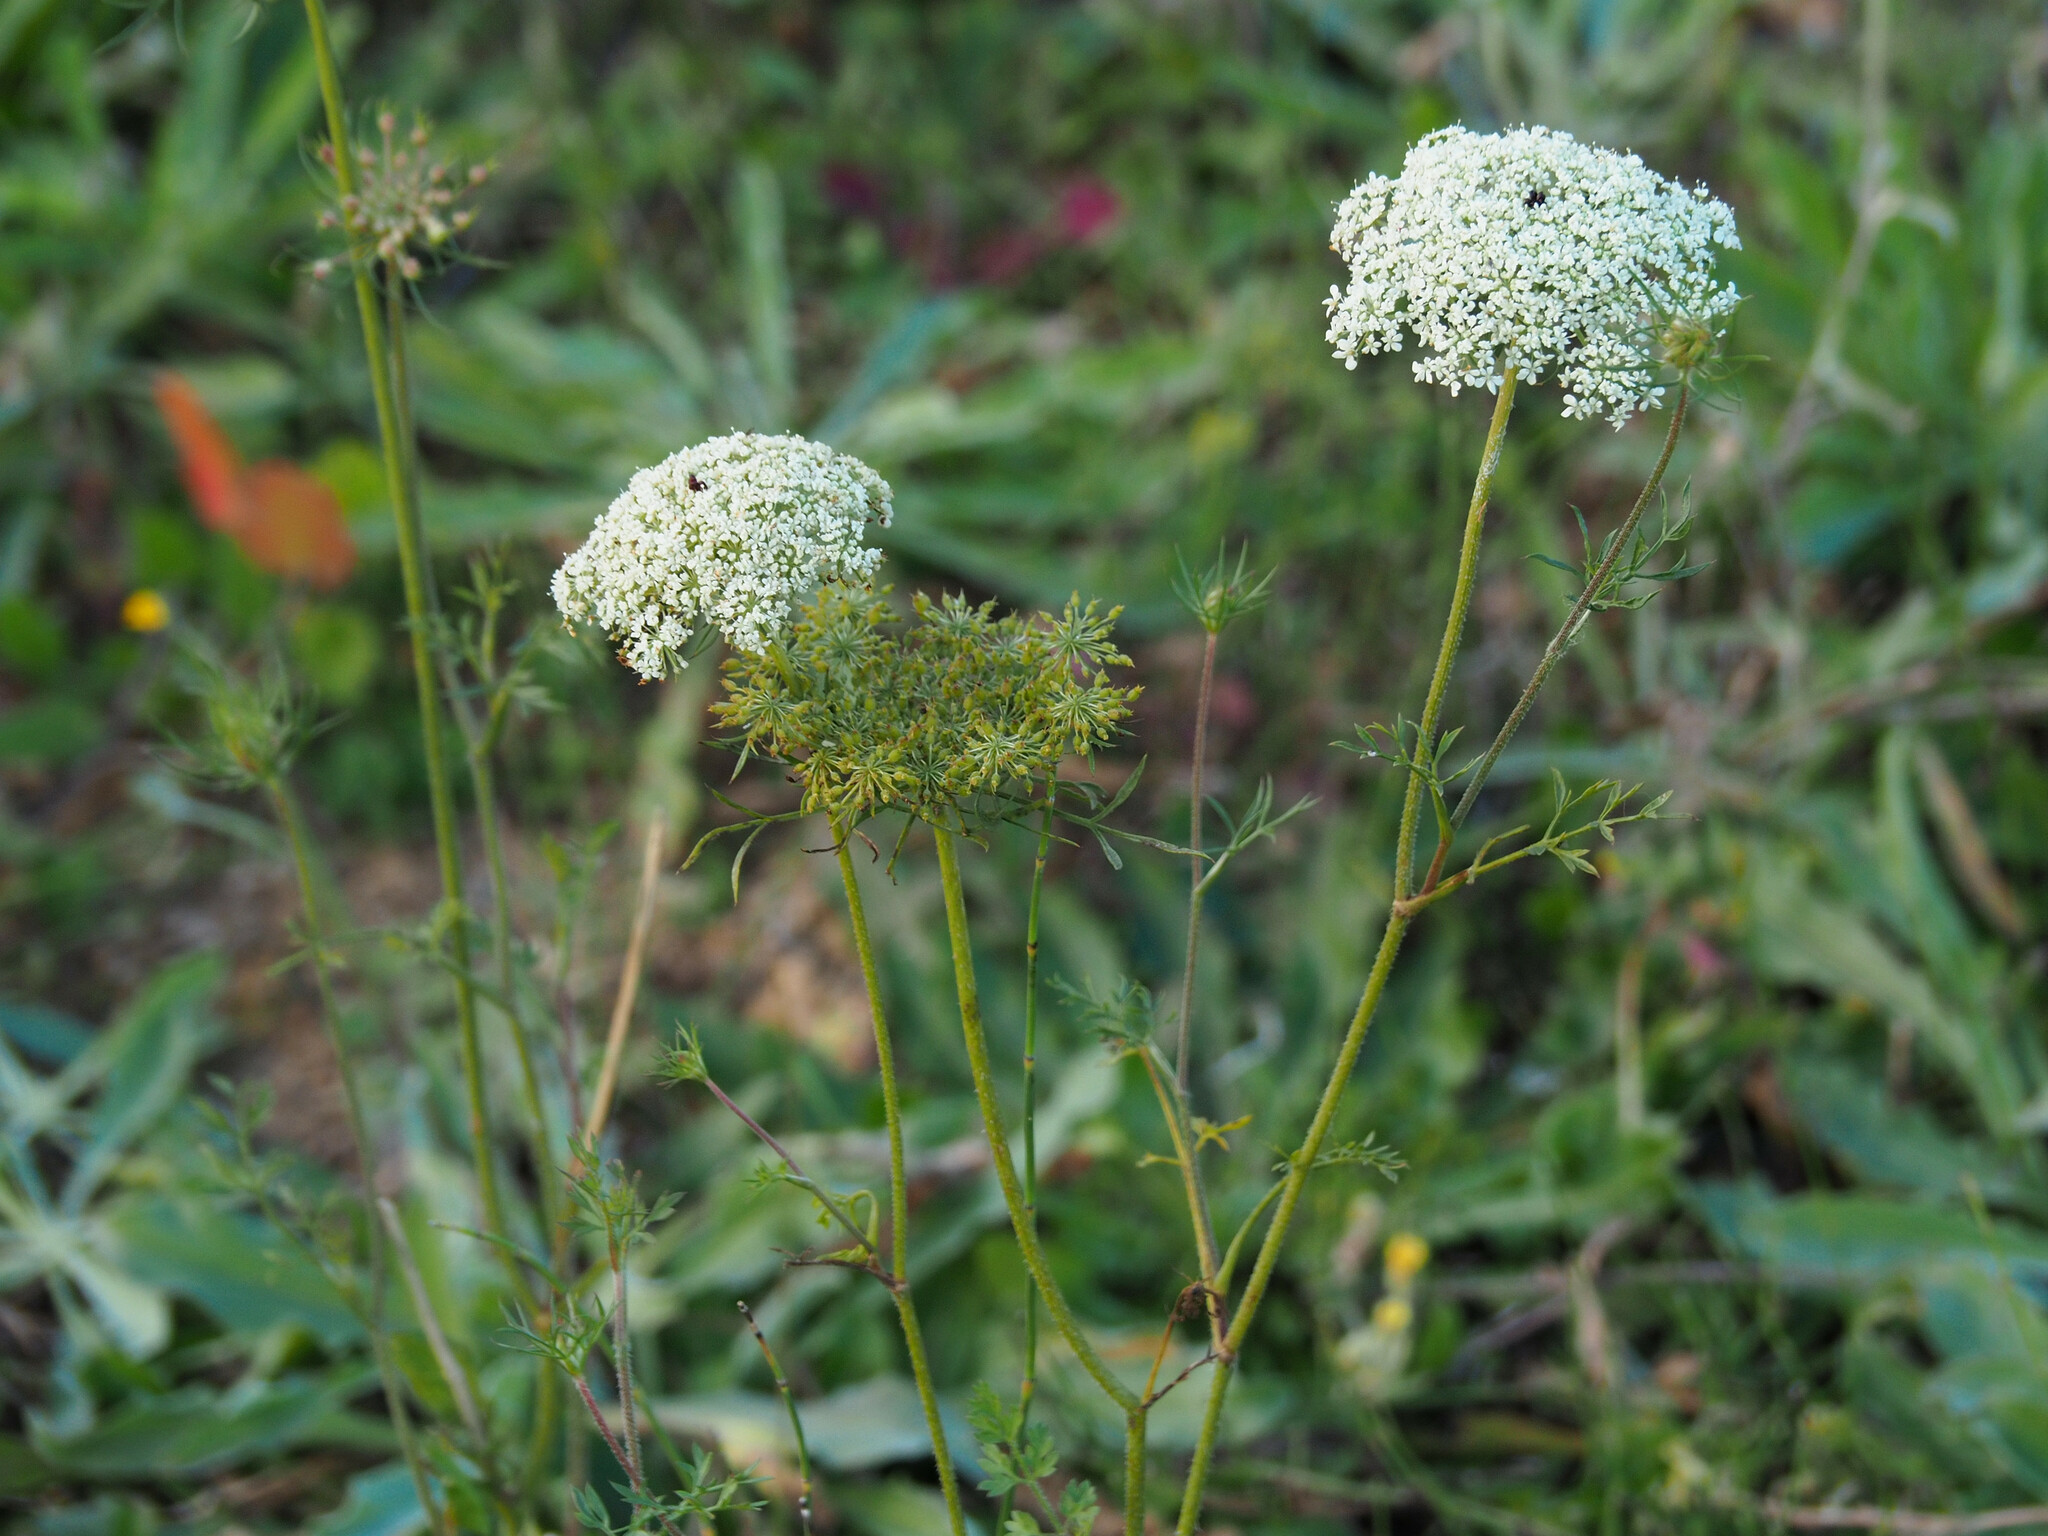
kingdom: Plantae
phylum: Tracheophyta
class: Magnoliopsida
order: Apiales
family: Apiaceae
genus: Daucus
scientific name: Daucus carota
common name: Wild carrot
